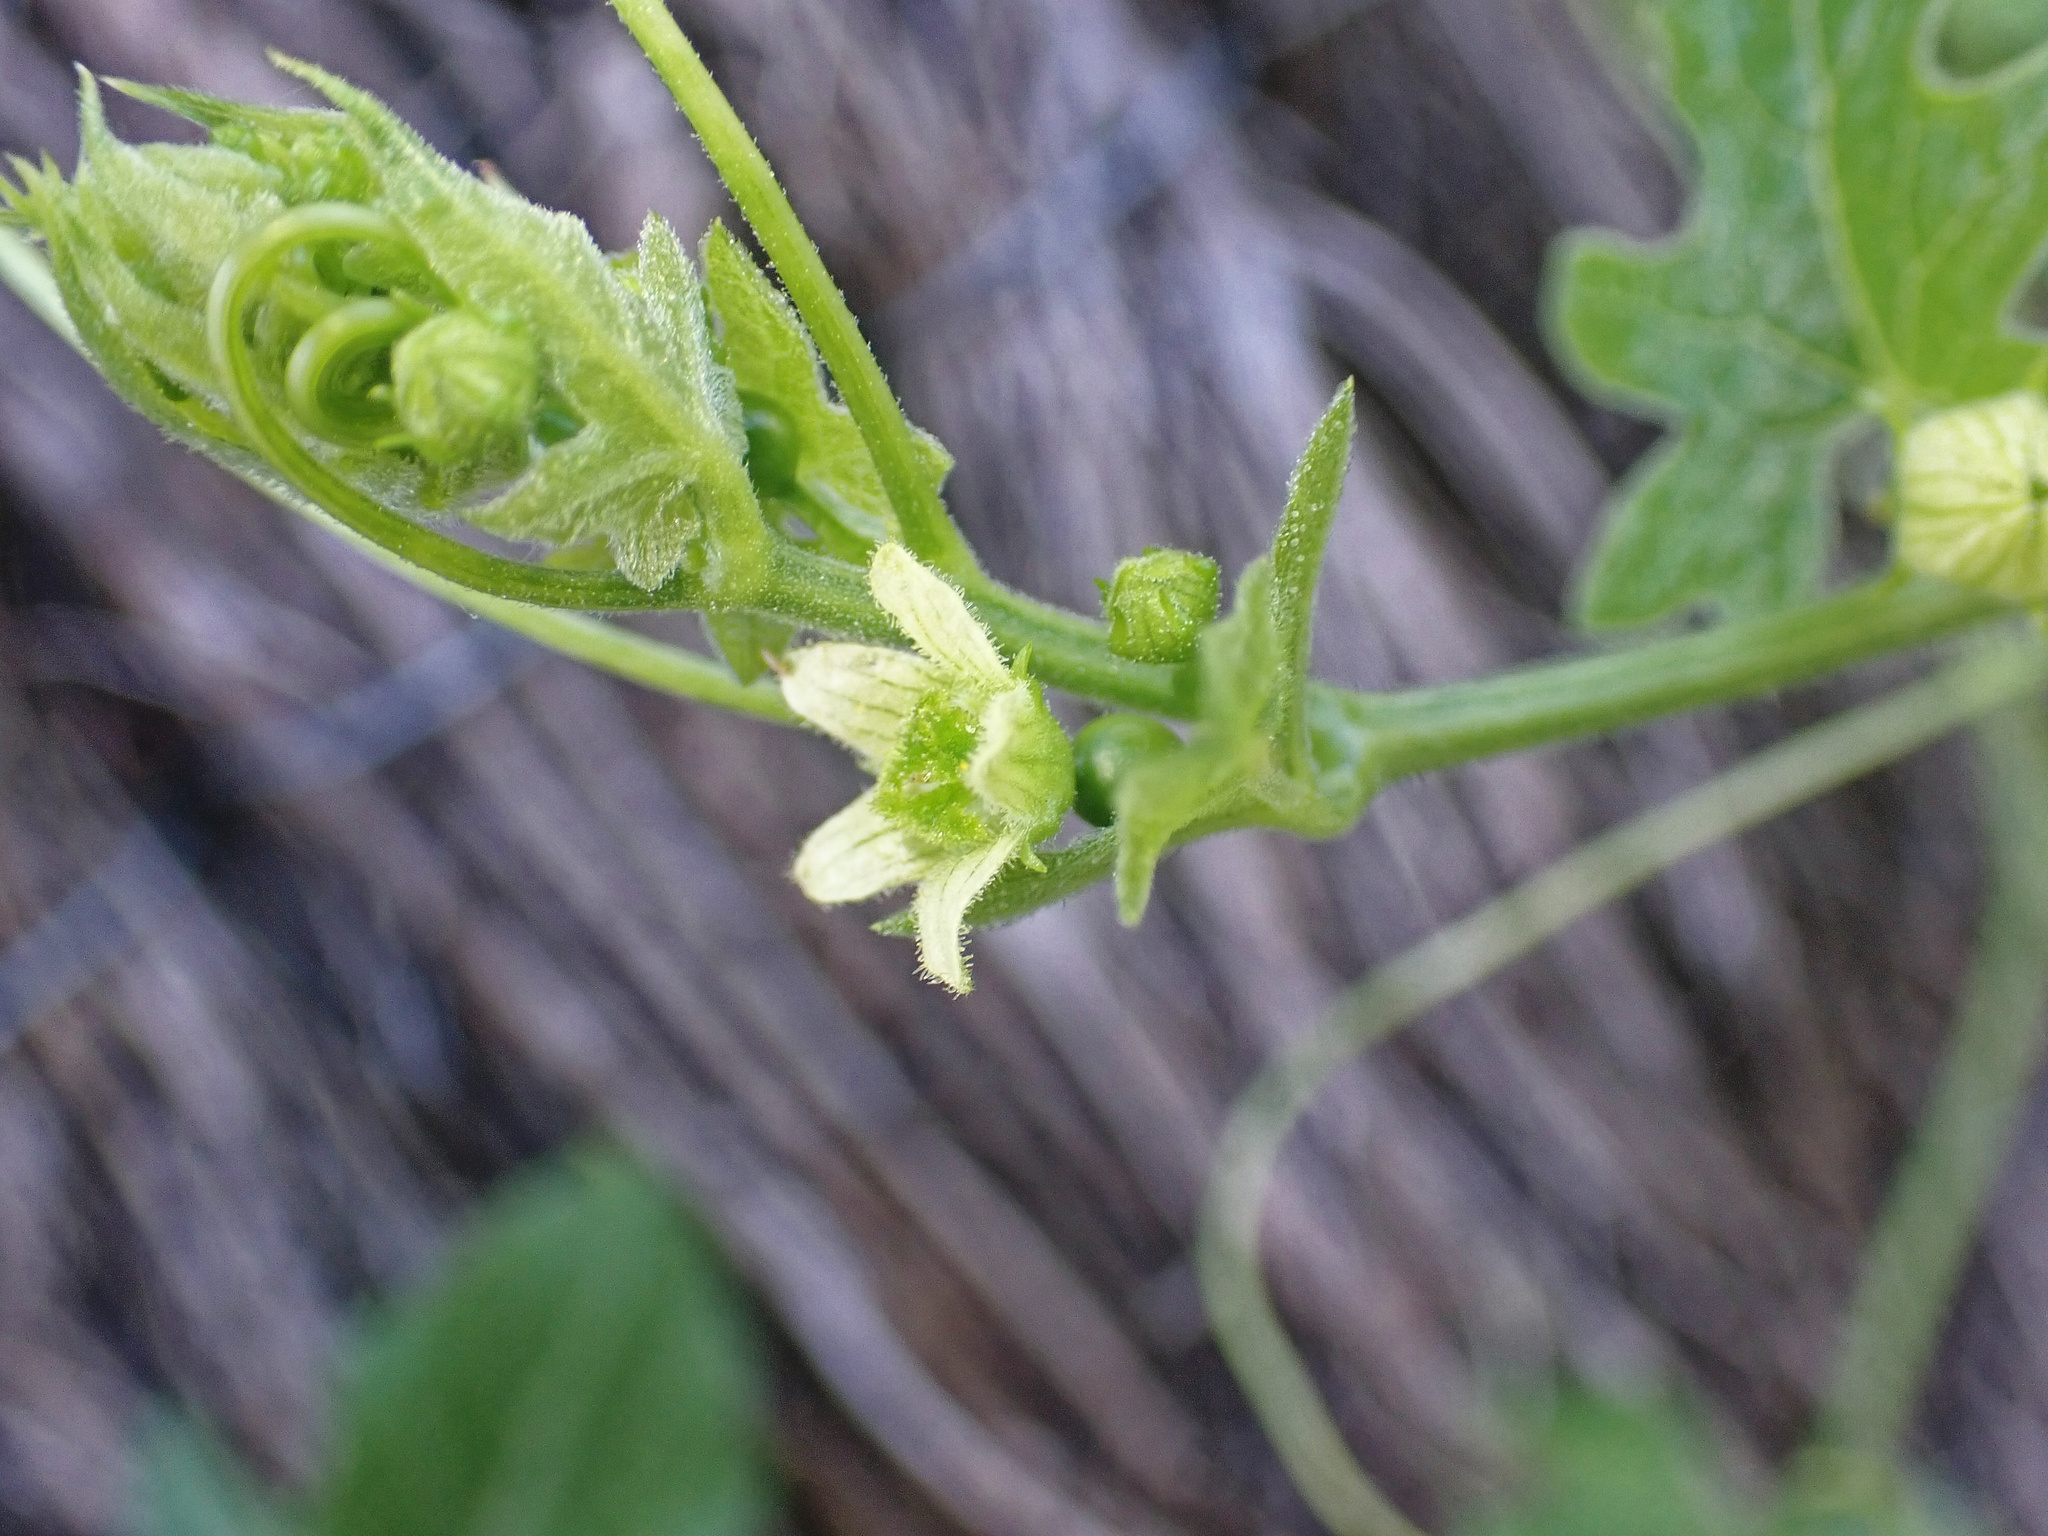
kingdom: Plantae
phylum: Tracheophyta
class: Magnoliopsida
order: Cucurbitales
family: Cucurbitaceae
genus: Bryonia
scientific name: Bryonia cretica
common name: Cretan bryony
